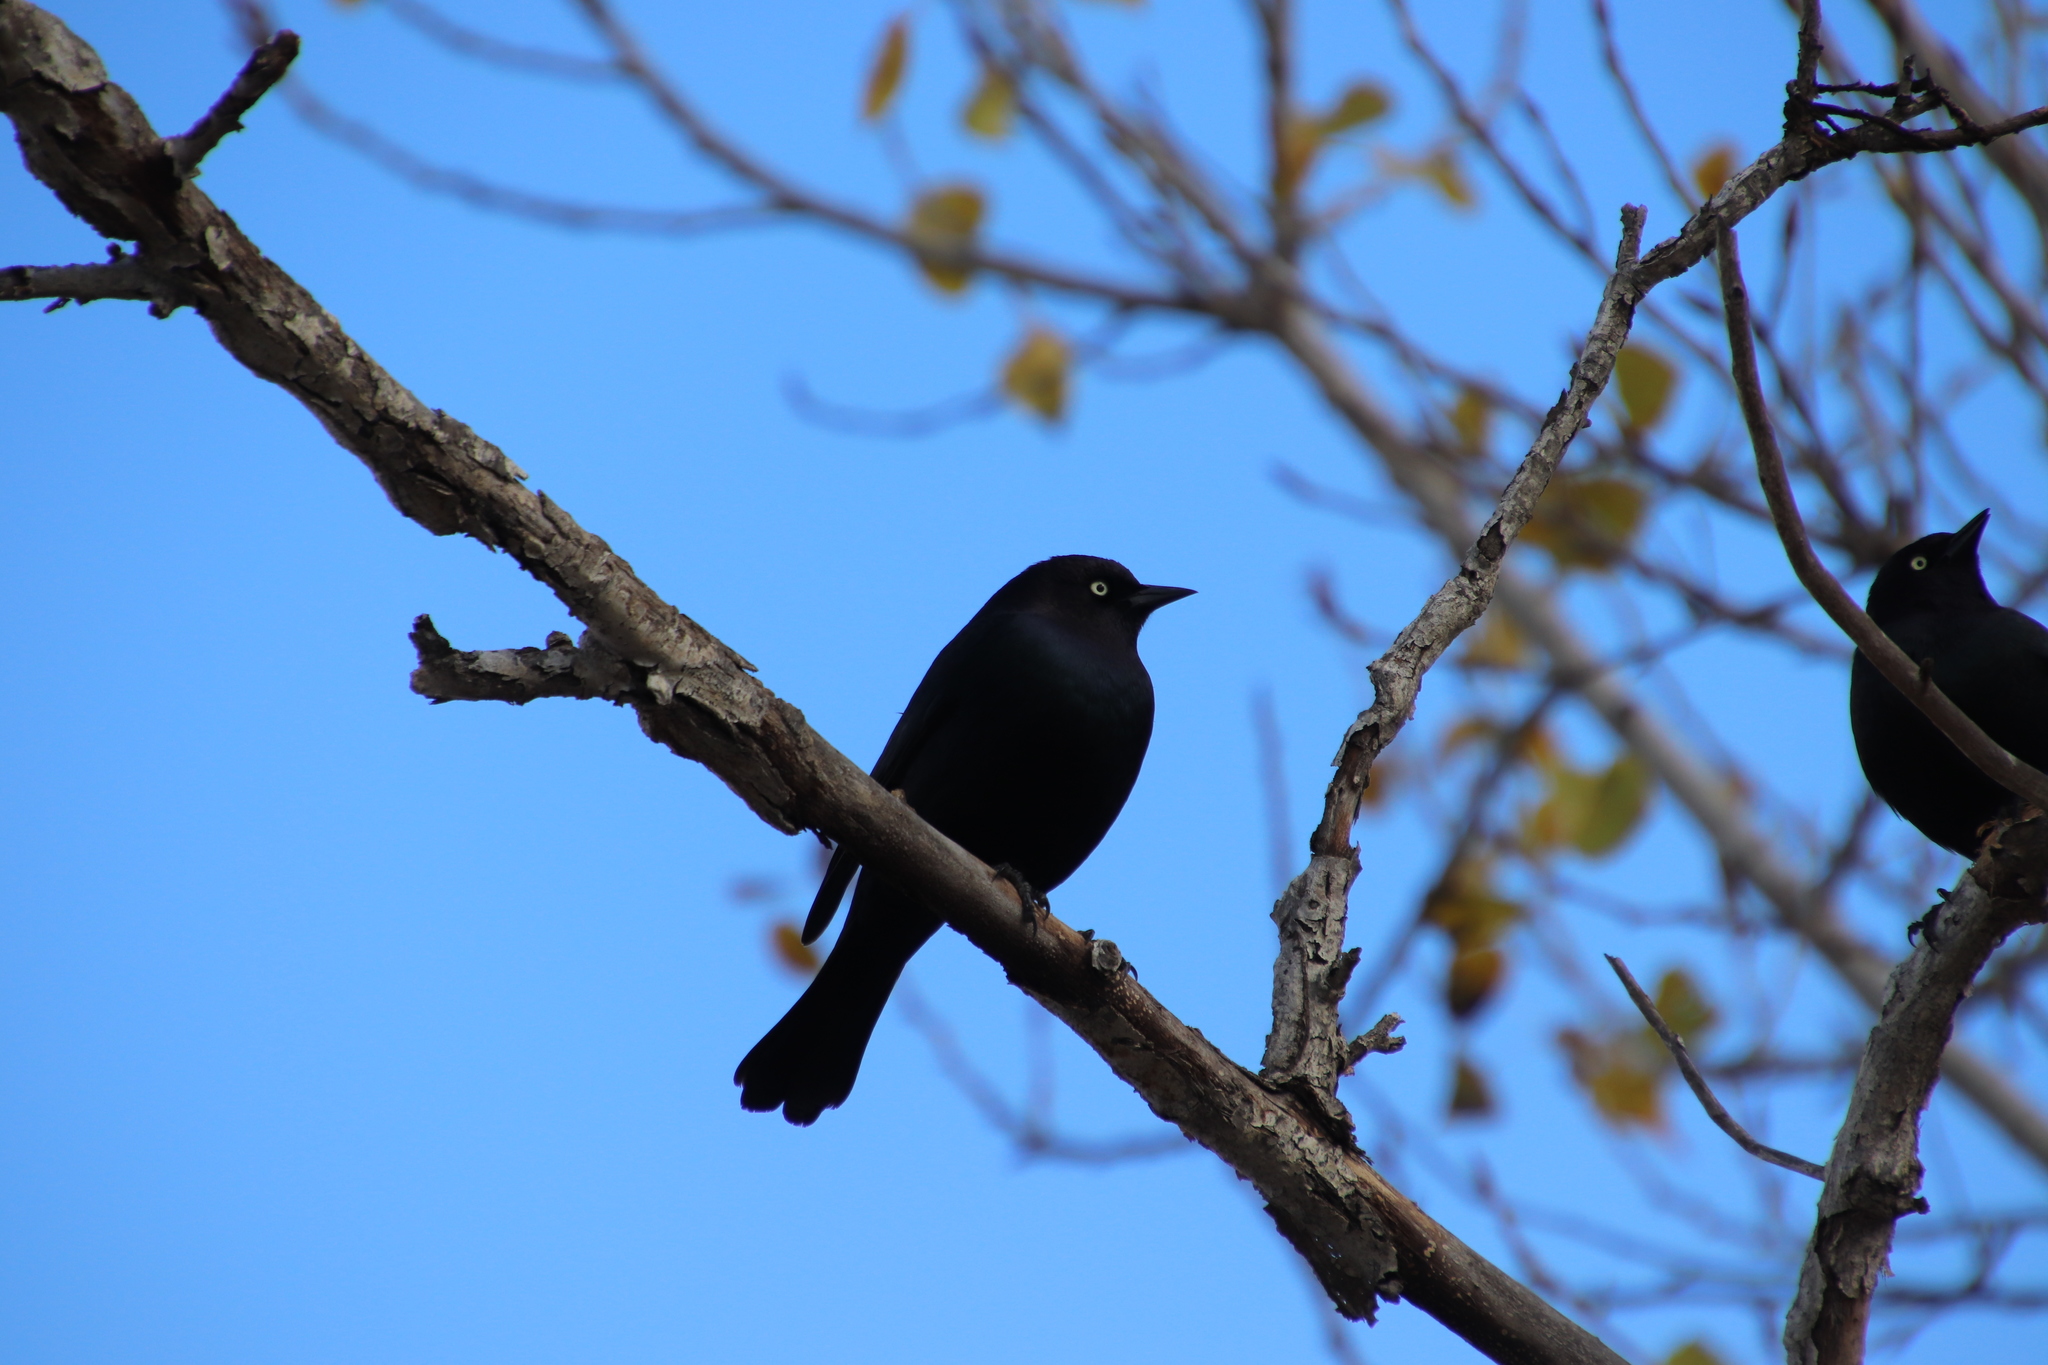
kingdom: Animalia
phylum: Chordata
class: Aves
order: Passeriformes
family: Icteridae
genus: Euphagus
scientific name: Euphagus cyanocephalus
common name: Brewer's blackbird
